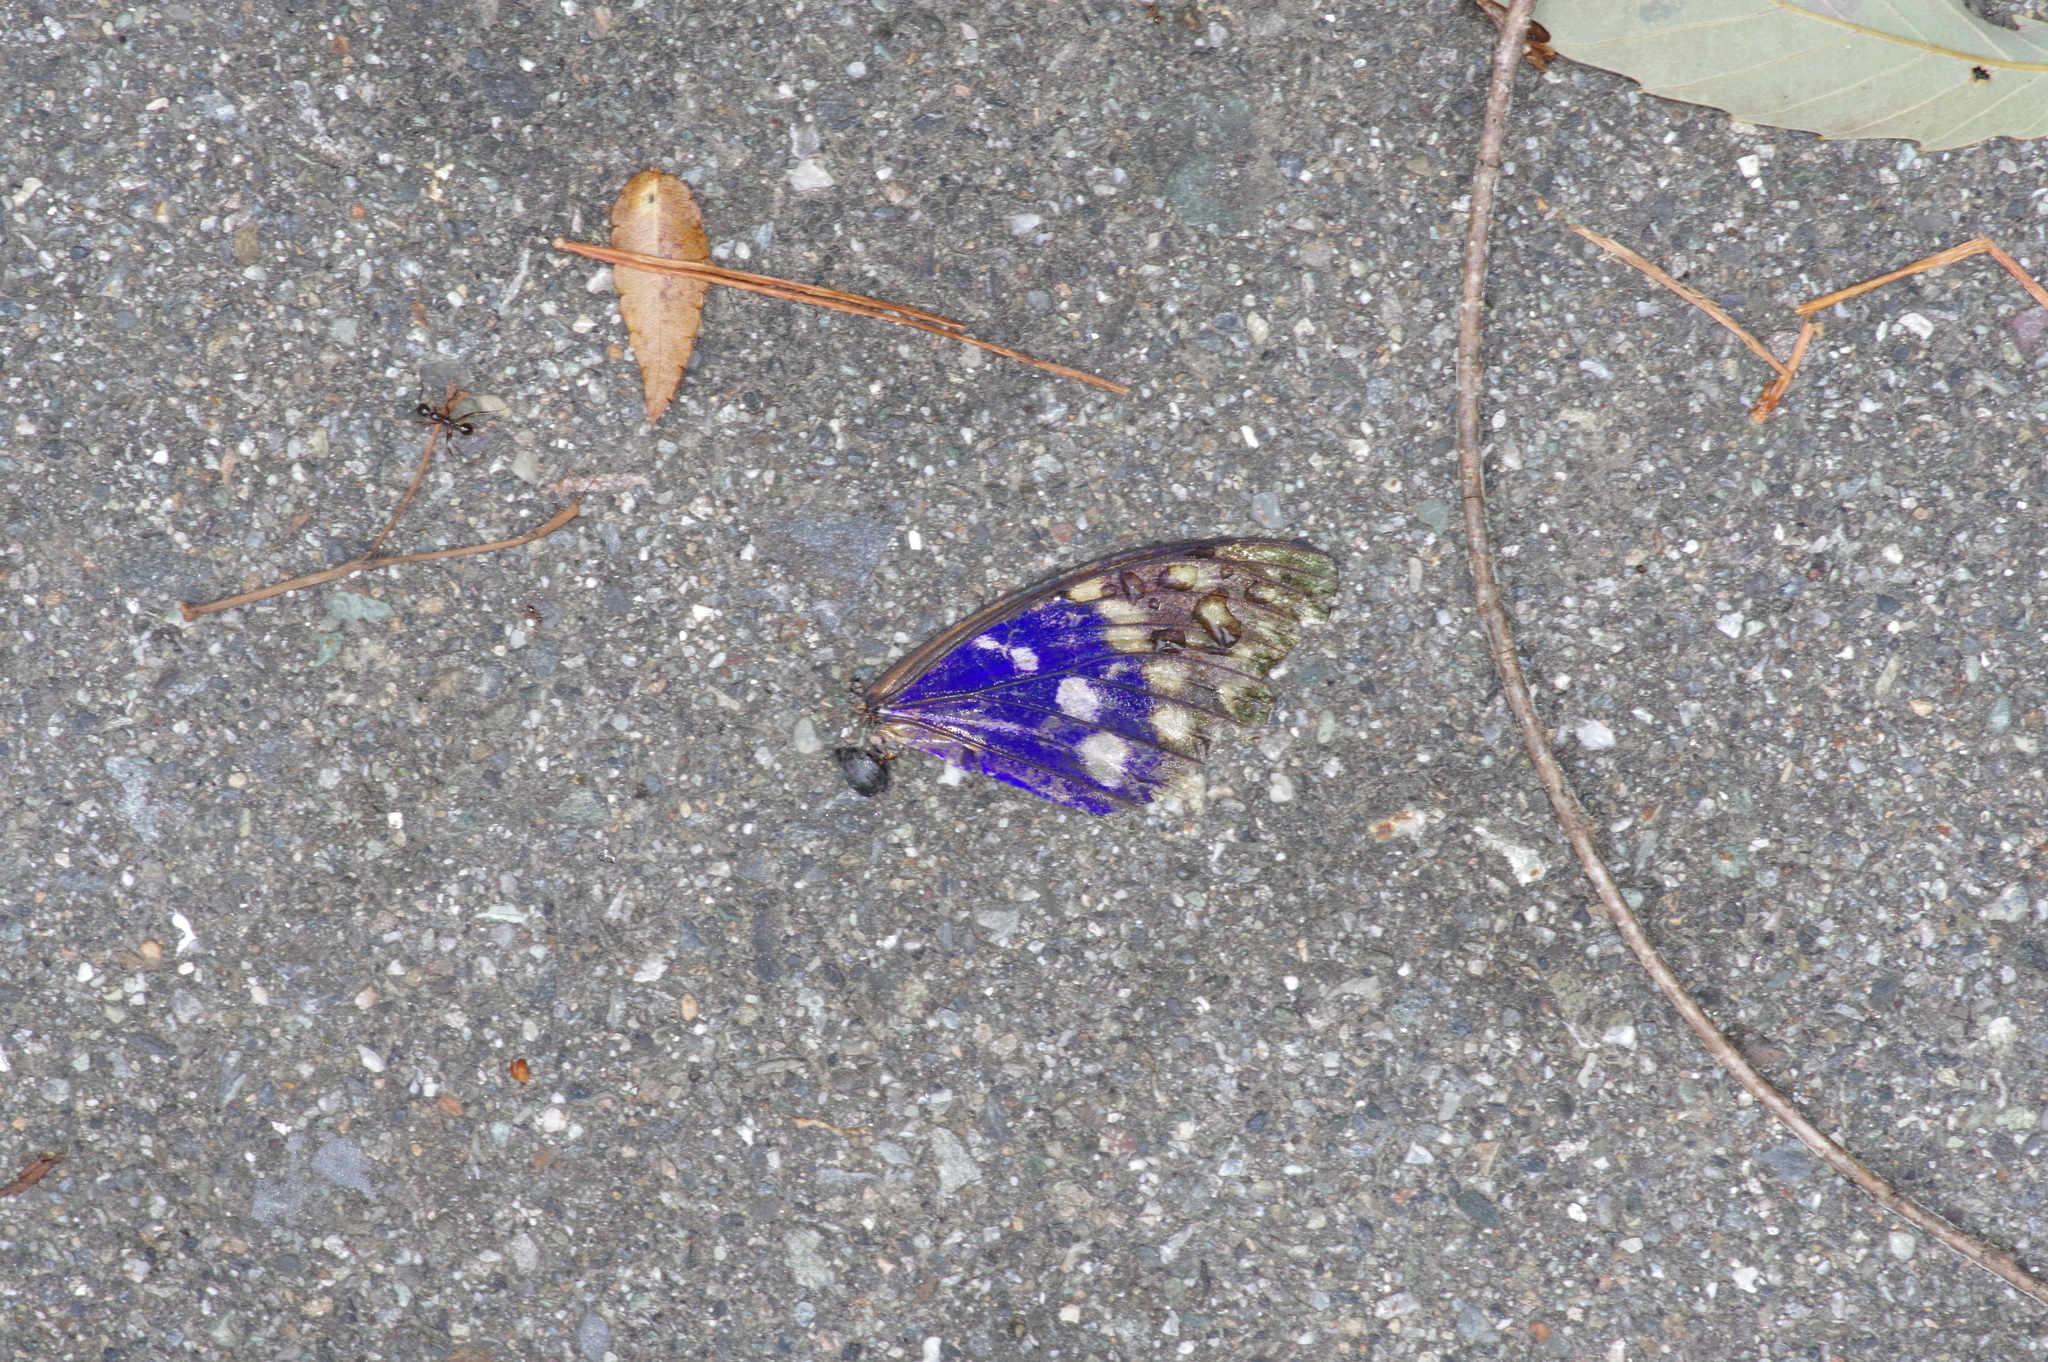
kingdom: Animalia
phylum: Arthropoda
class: Insecta
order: Lepidoptera
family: Nymphalidae
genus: Sasakia
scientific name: Sasakia charonda
